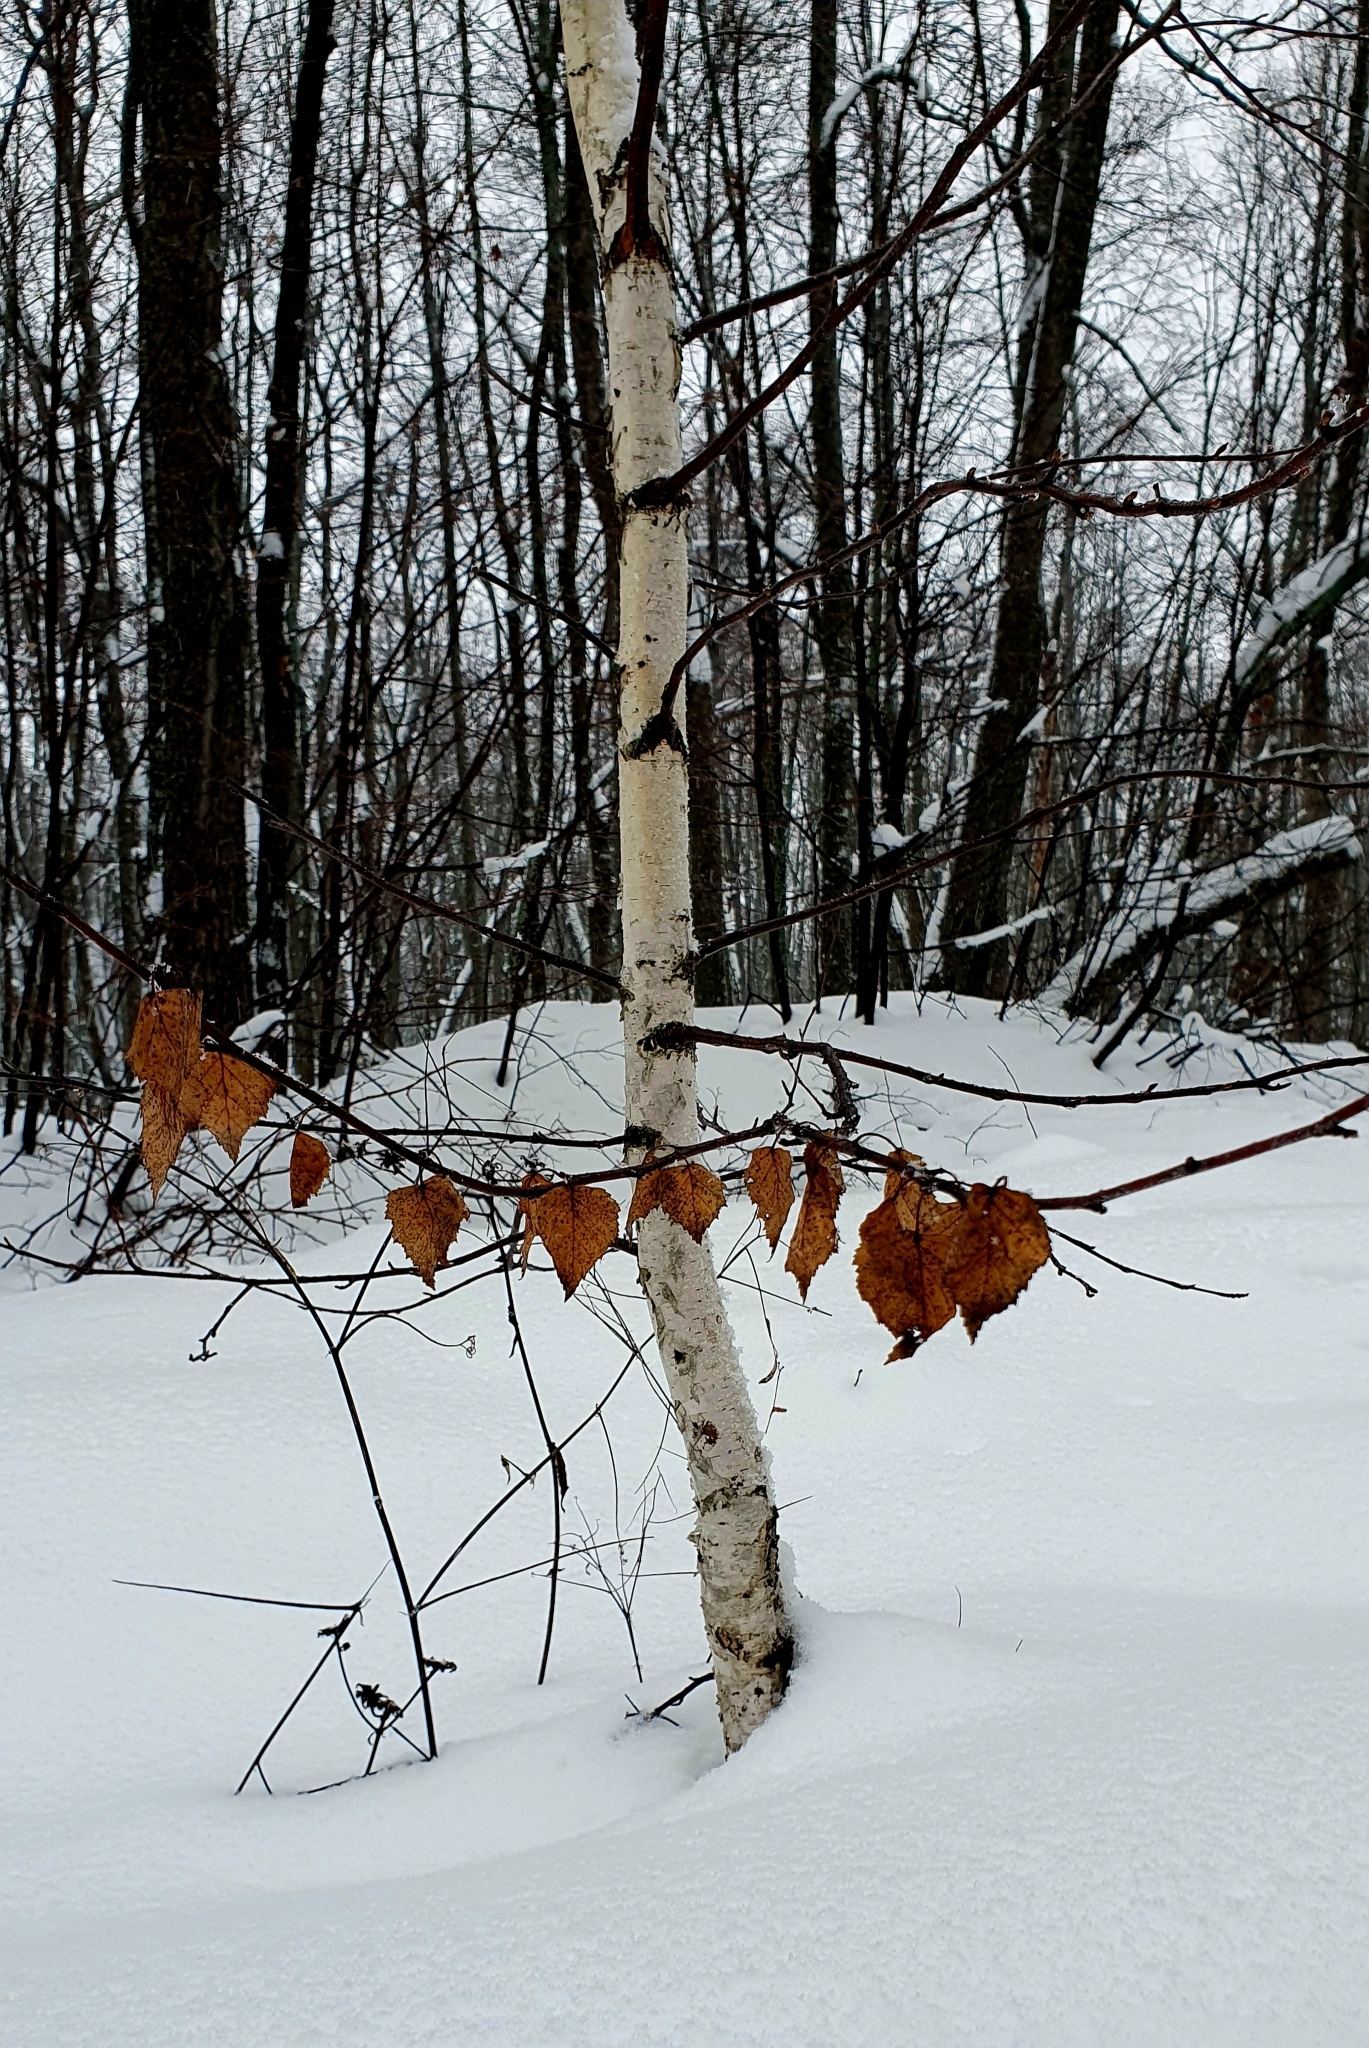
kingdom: Plantae
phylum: Tracheophyta
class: Magnoliopsida
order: Fagales
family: Betulaceae
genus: Betula
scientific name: Betula pendula
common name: Silver birch
